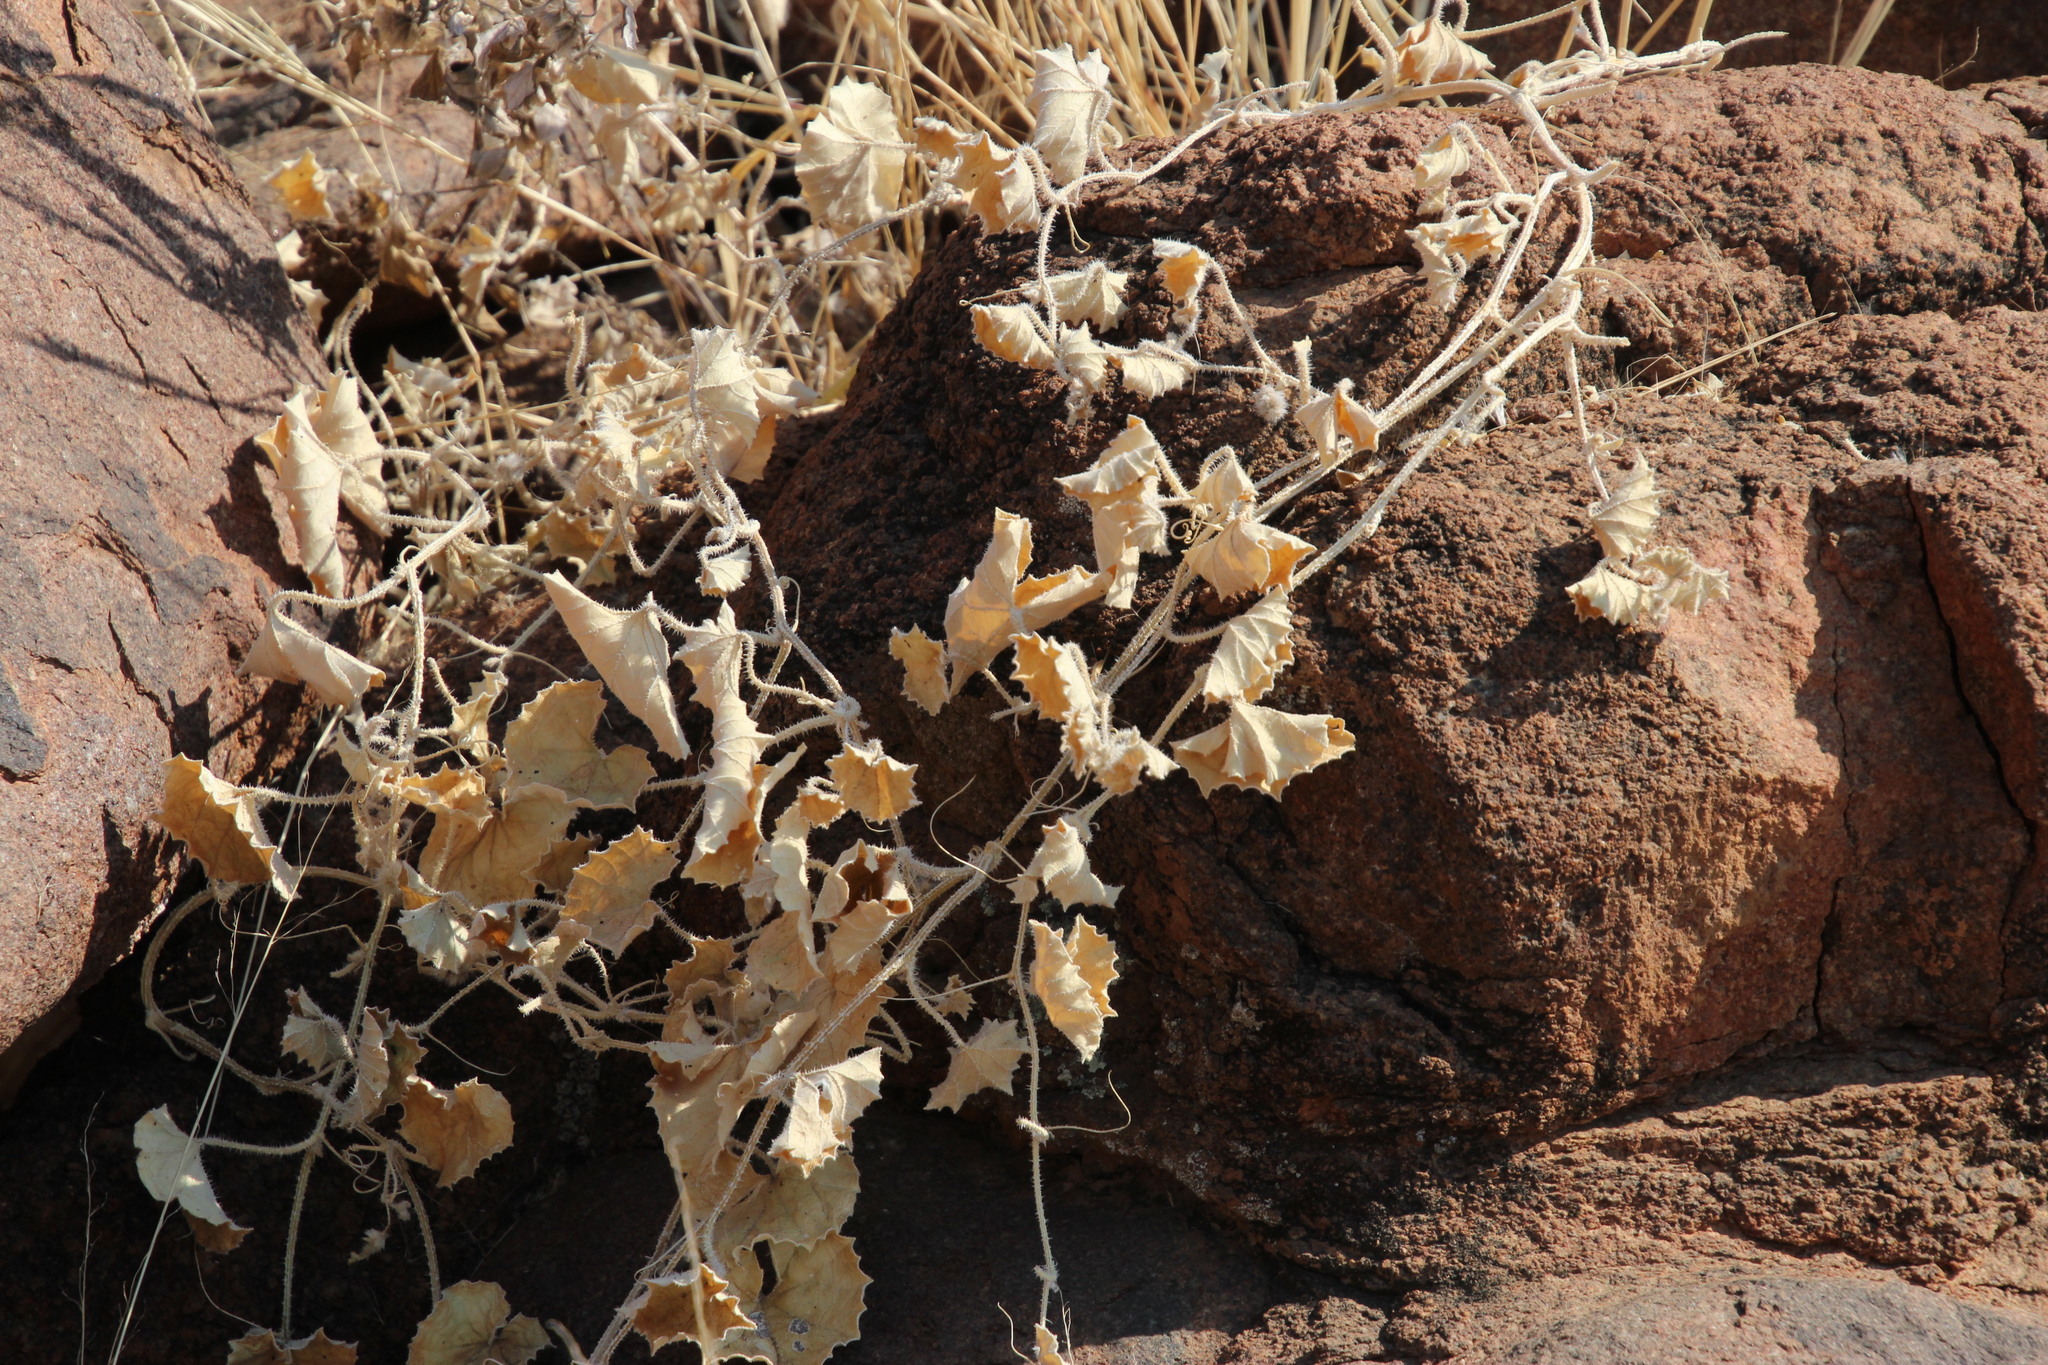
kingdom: Plantae
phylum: Tracheophyta
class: Magnoliopsida
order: Cucurbitales
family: Cucurbitaceae
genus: Cucumis
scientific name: Cucumis sagittatus
